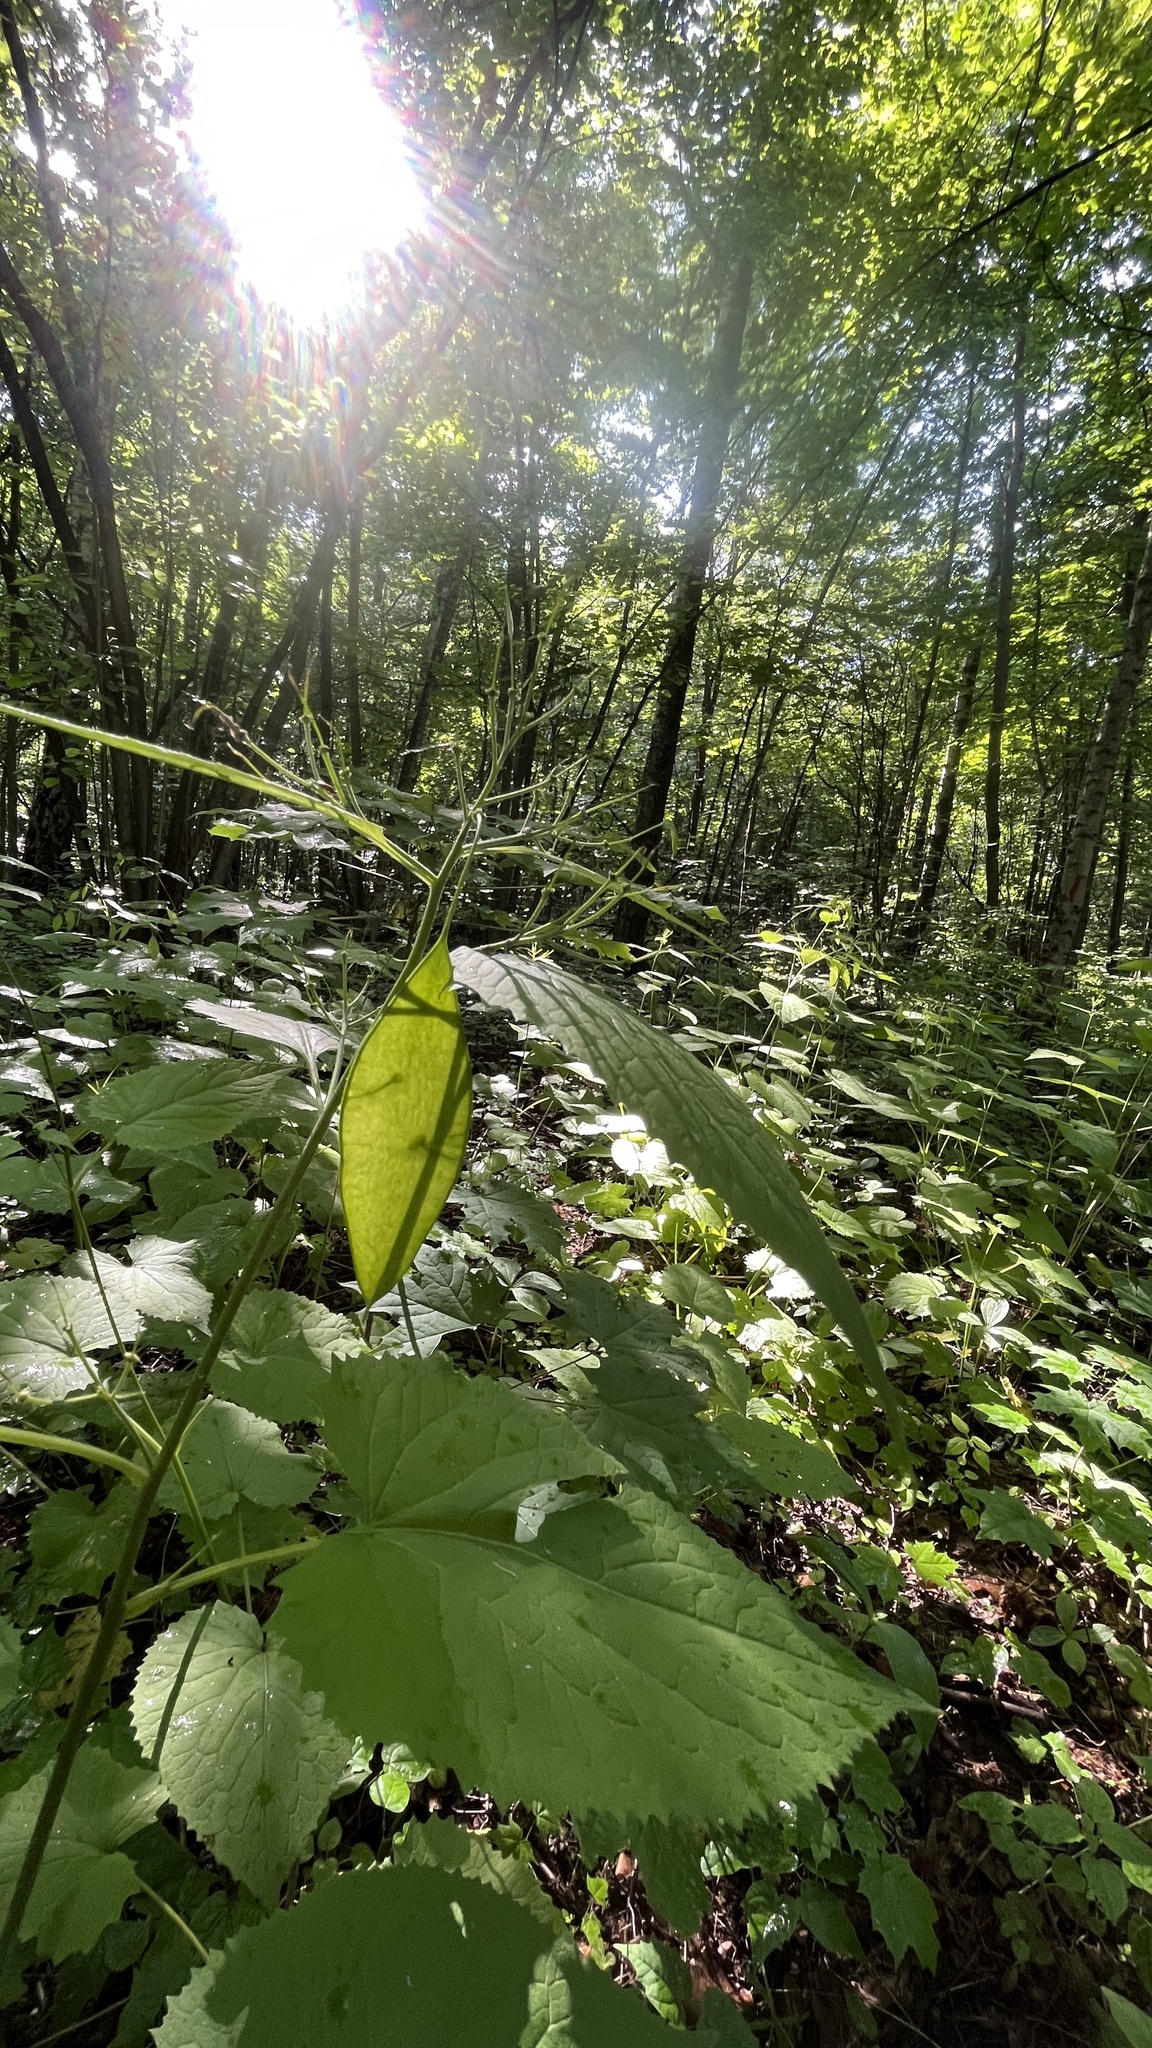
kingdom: Plantae
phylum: Tracheophyta
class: Magnoliopsida
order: Brassicales
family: Brassicaceae
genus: Lunaria
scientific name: Lunaria rediviva
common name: Perennial honesty
